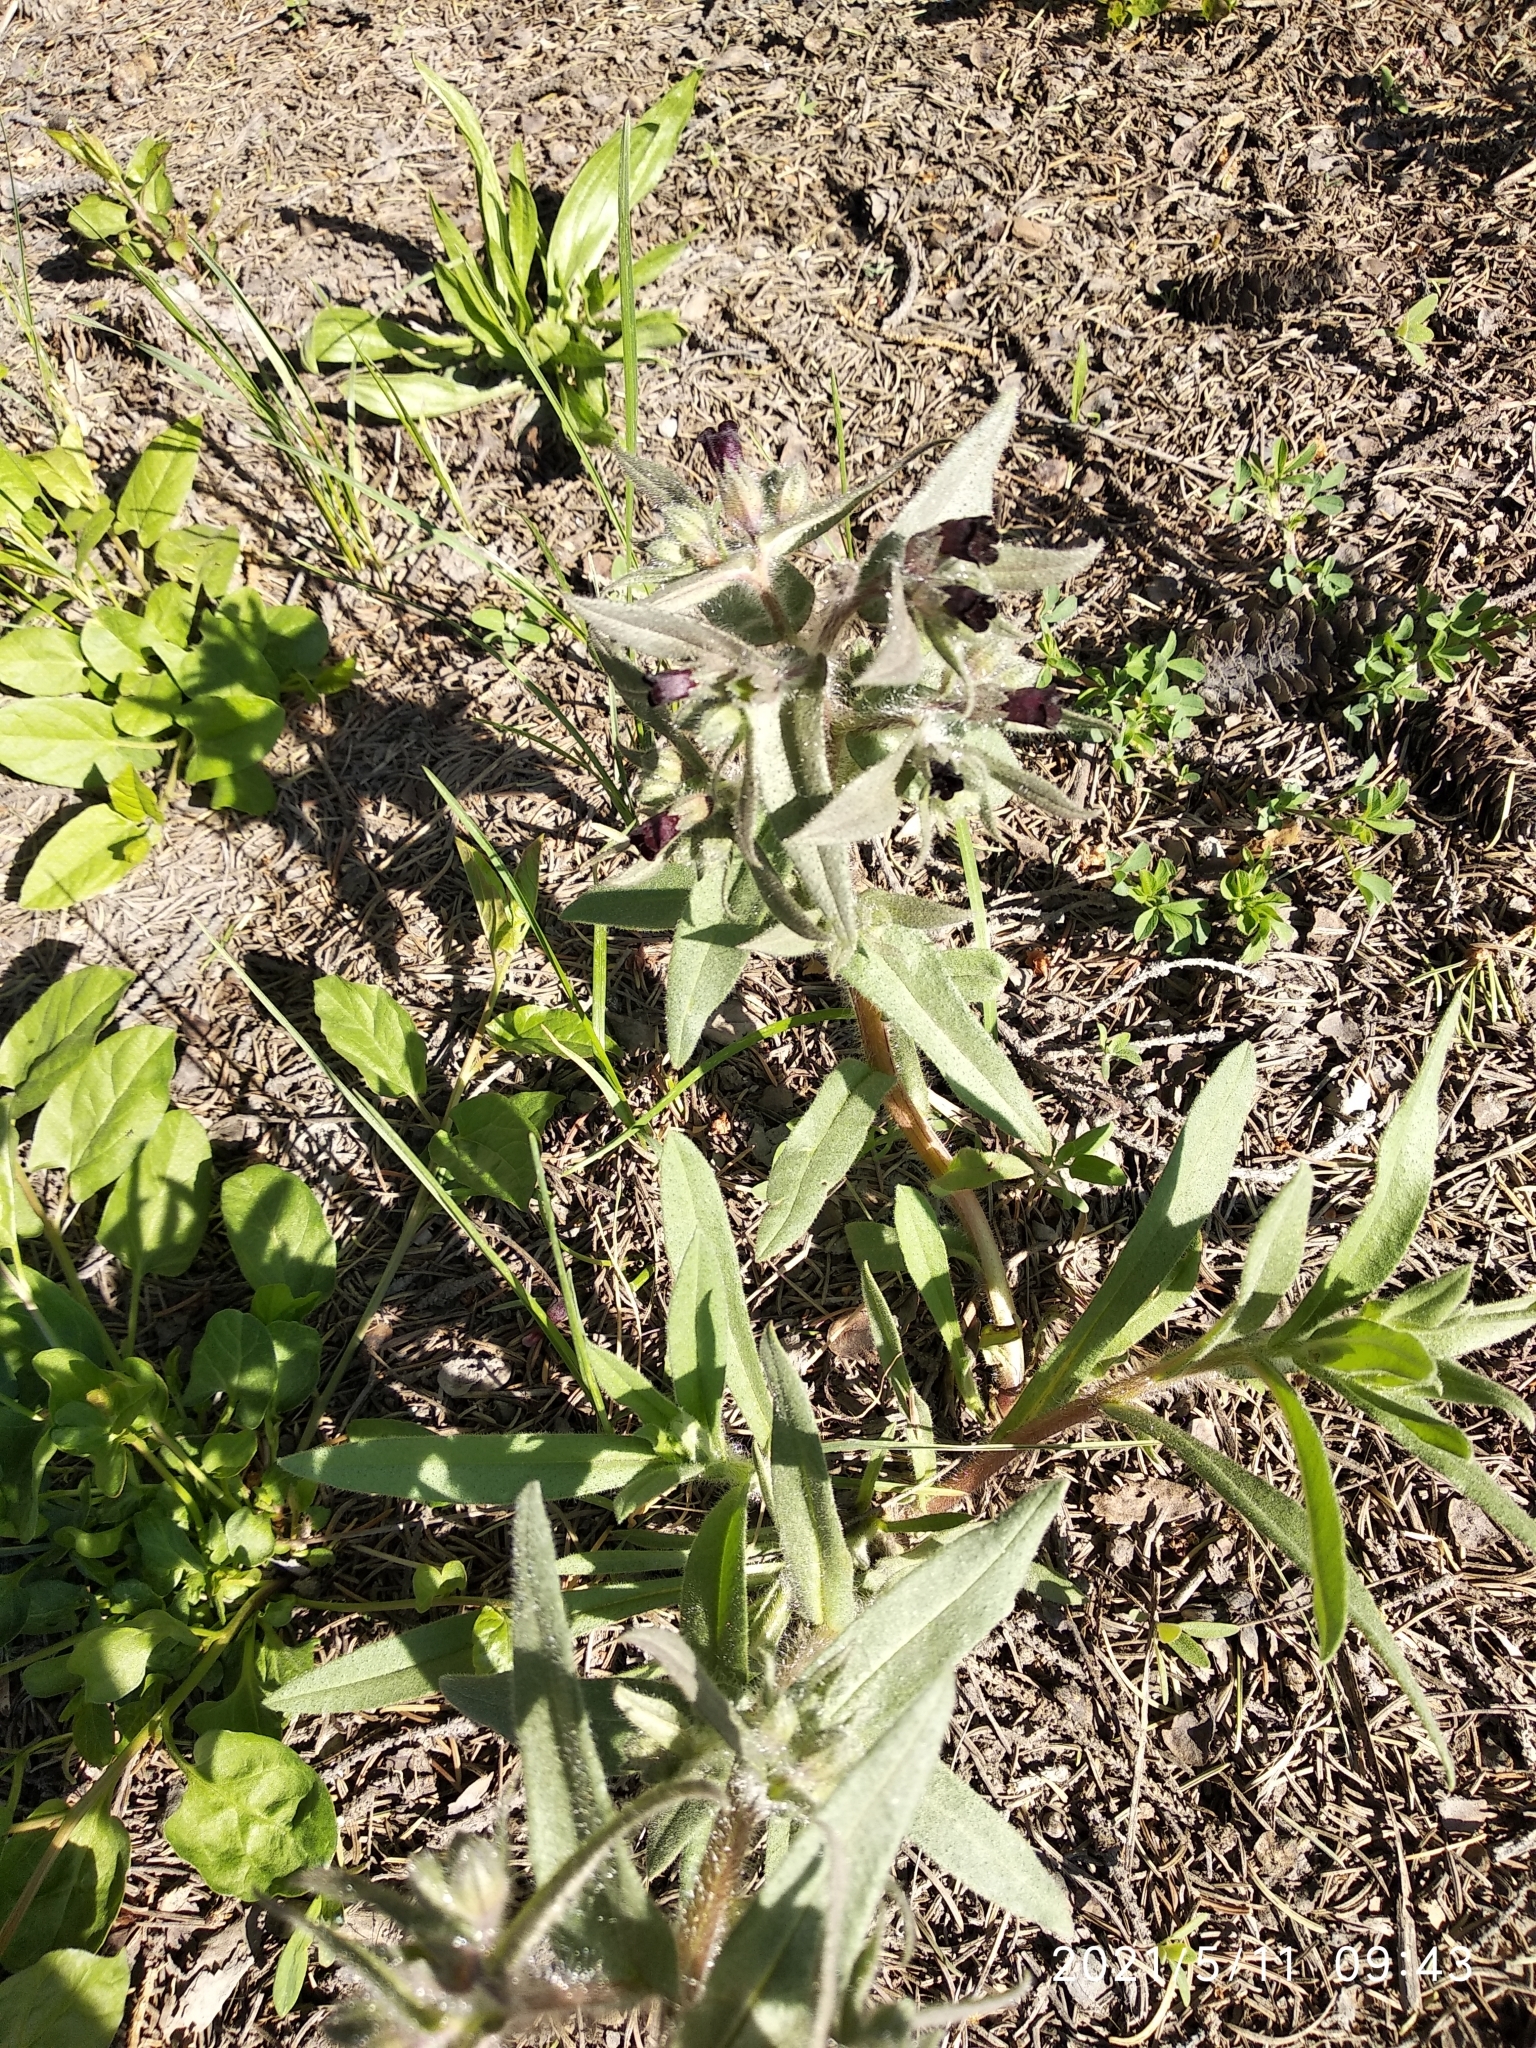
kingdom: Plantae
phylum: Tracheophyta
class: Magnoliopsida
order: Boraginales
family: Boraginaceae
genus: Nonea
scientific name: Nonea pulla
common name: Brown nonea
